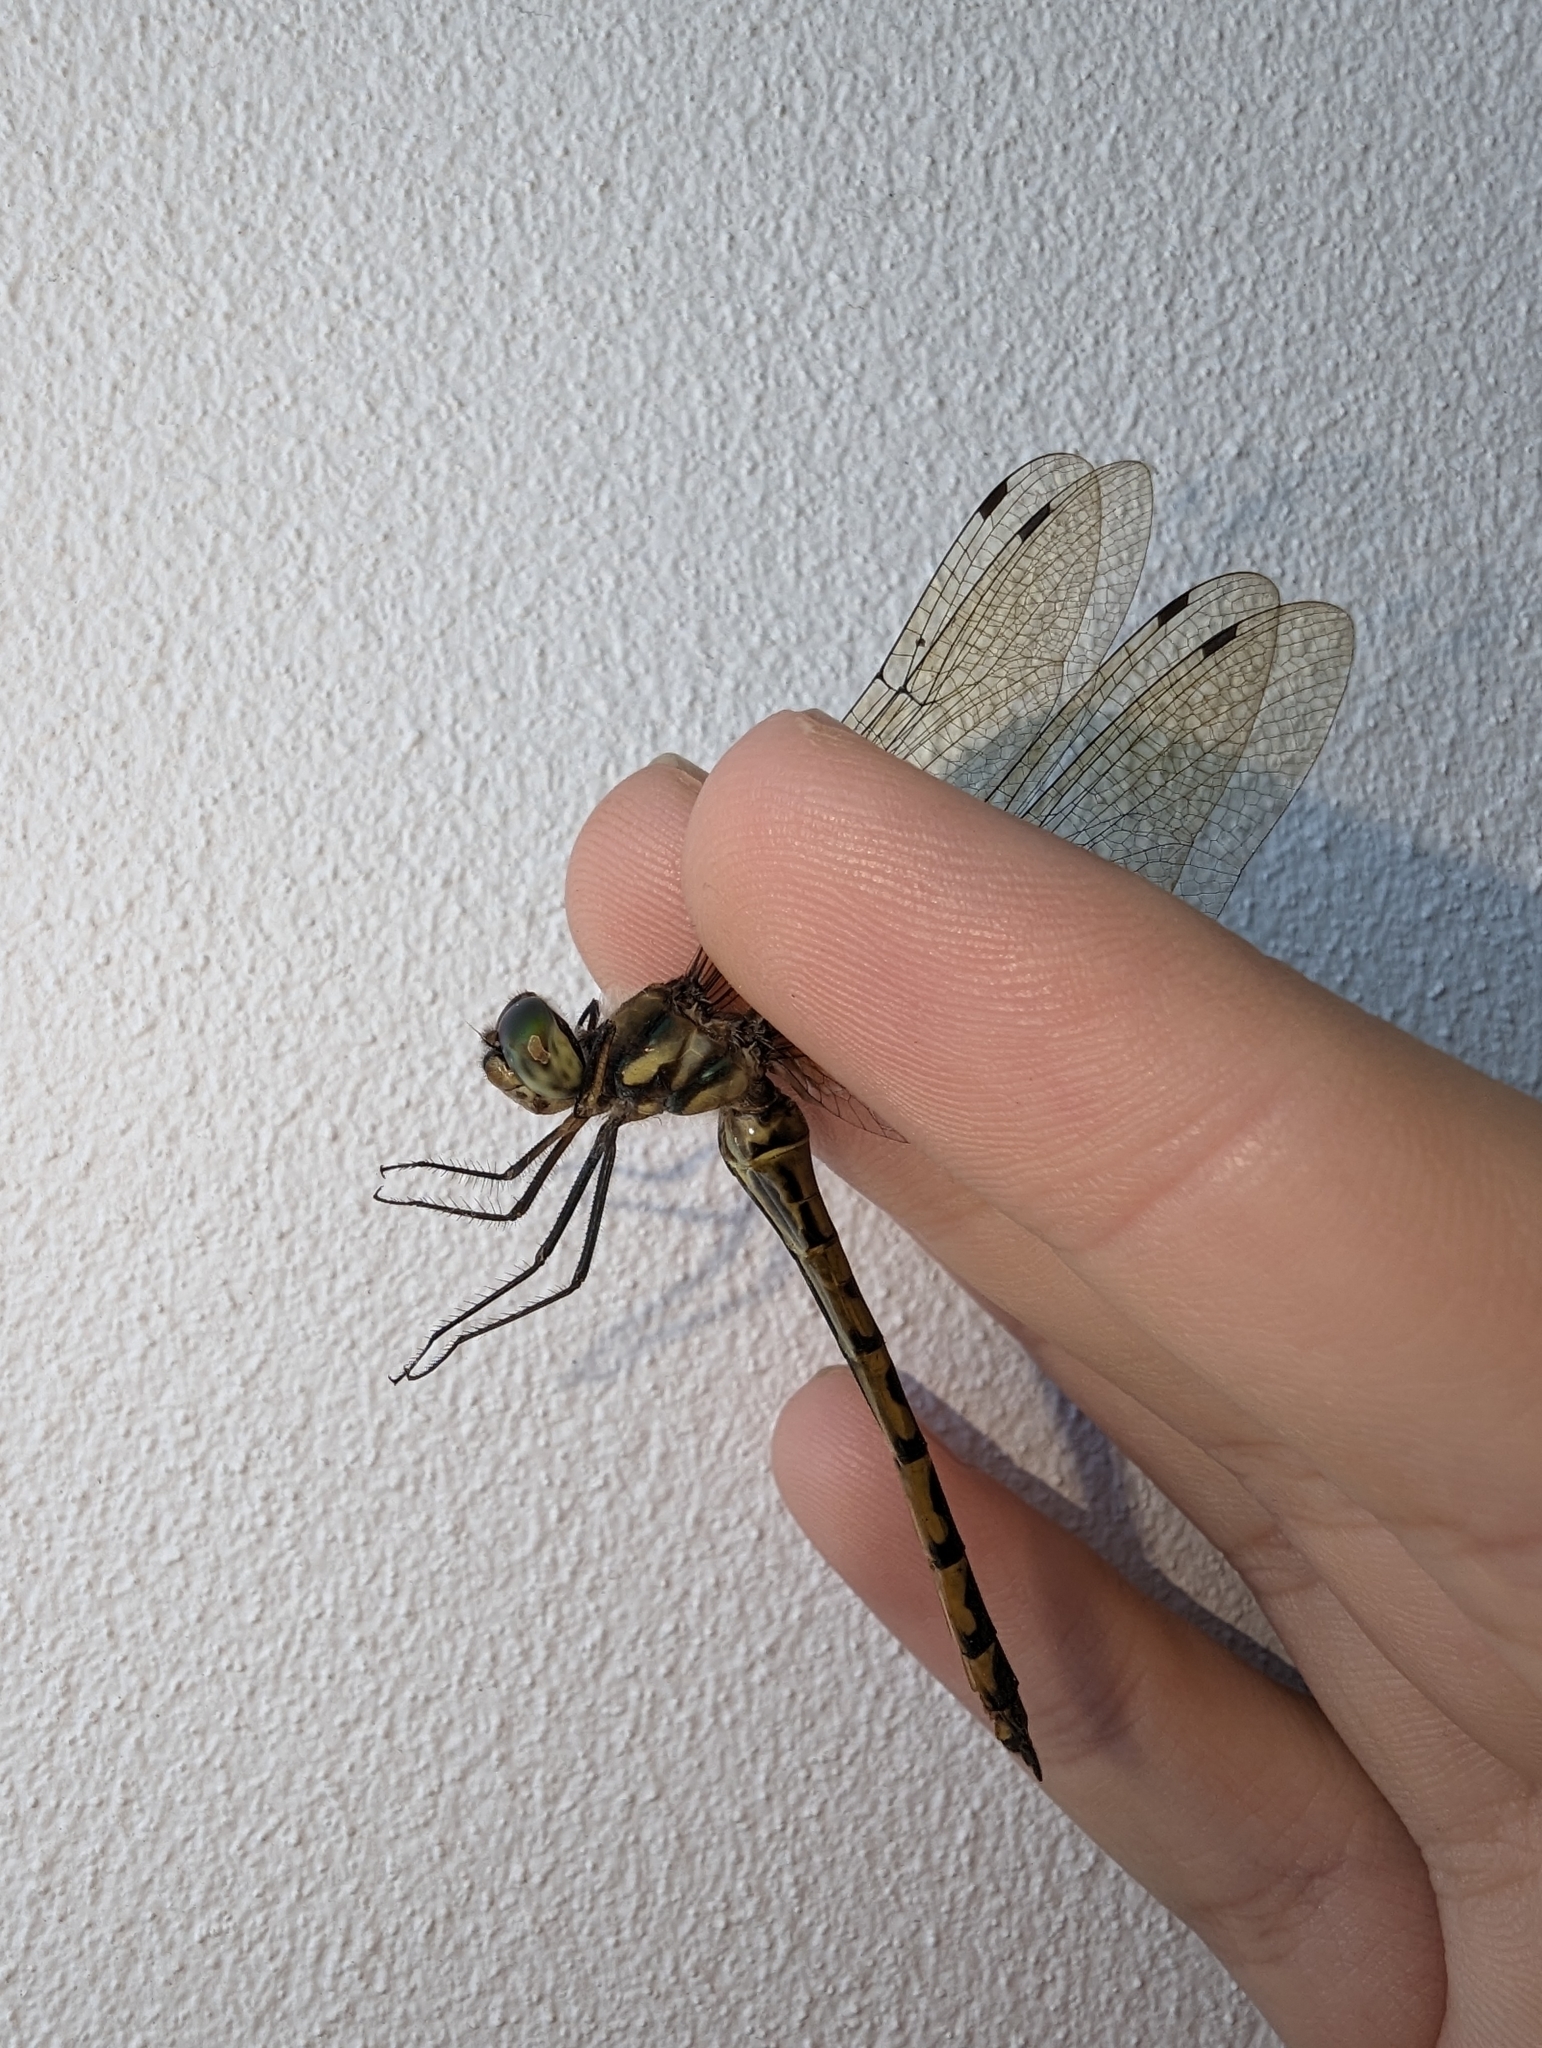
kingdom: Animalia
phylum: Arthropoda
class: Insecta
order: Odonata
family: Corduliidae
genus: Hemicordulia
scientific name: Hemicordulia australiae
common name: Sentry dragonfly
